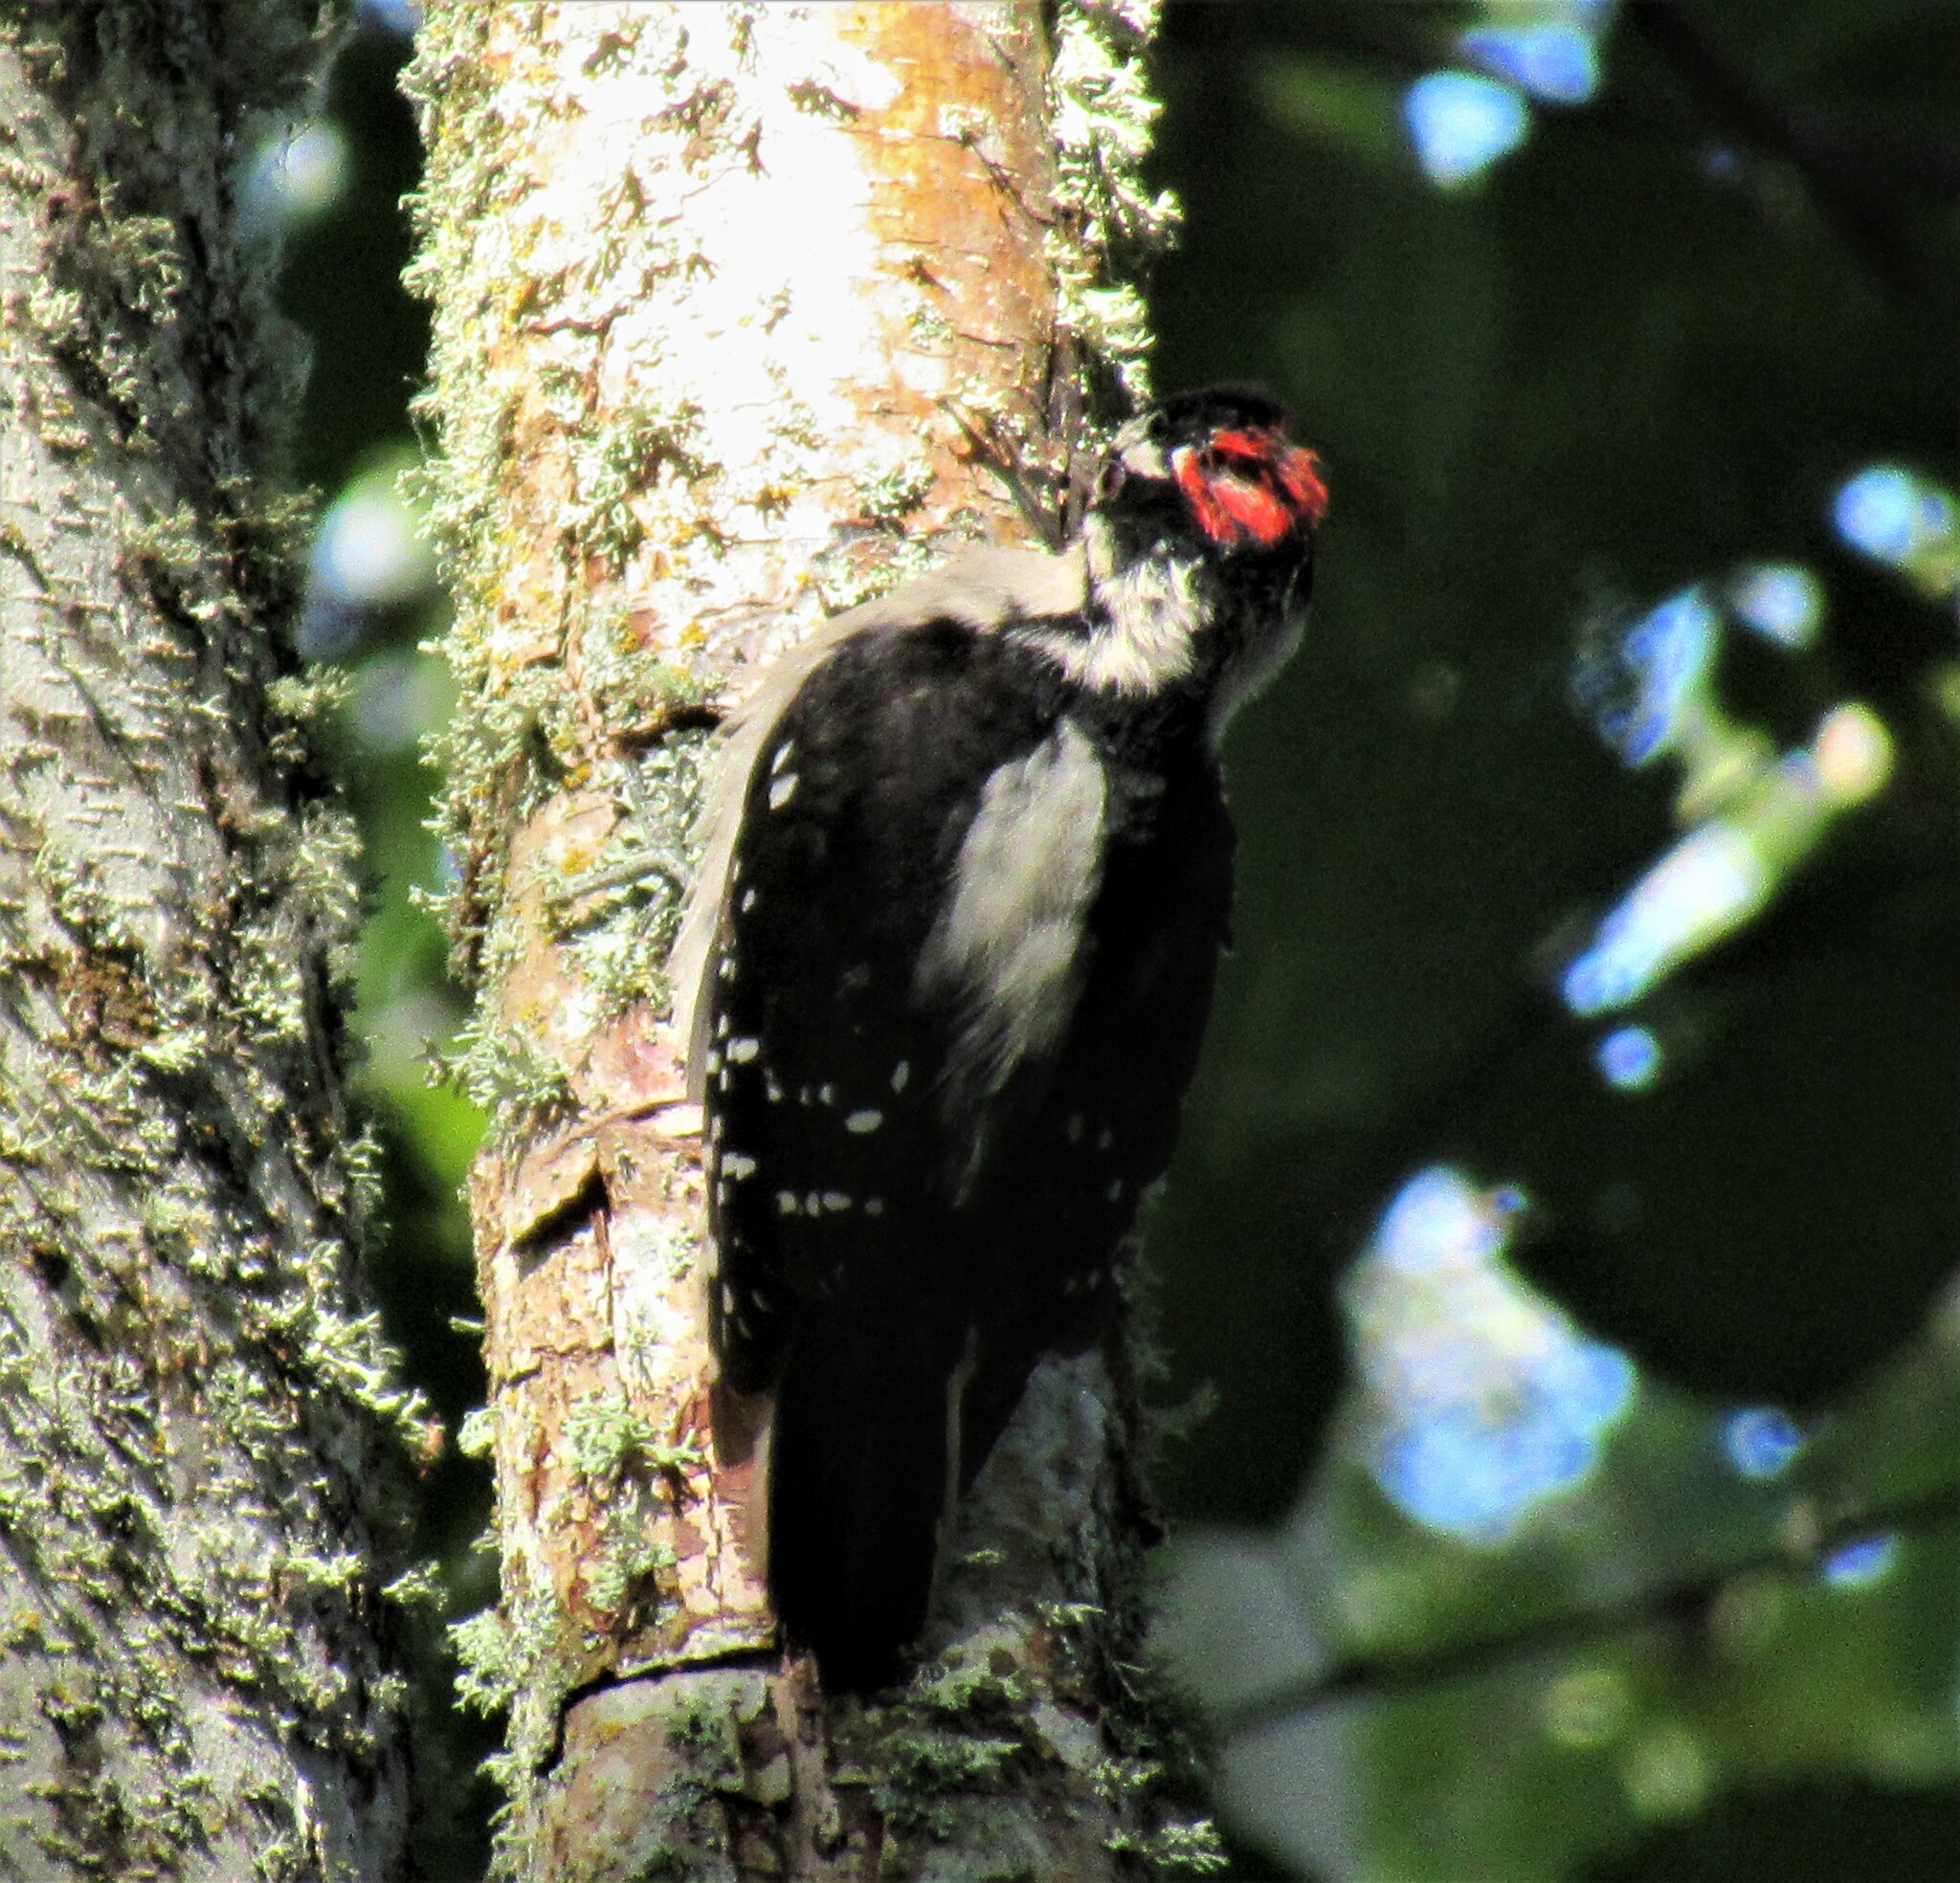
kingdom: Animalia
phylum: Chordata
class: Aves
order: Piciformes
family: Picidae
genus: Dryobates
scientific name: Dryobates pubescens
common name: Downy woodpecker
